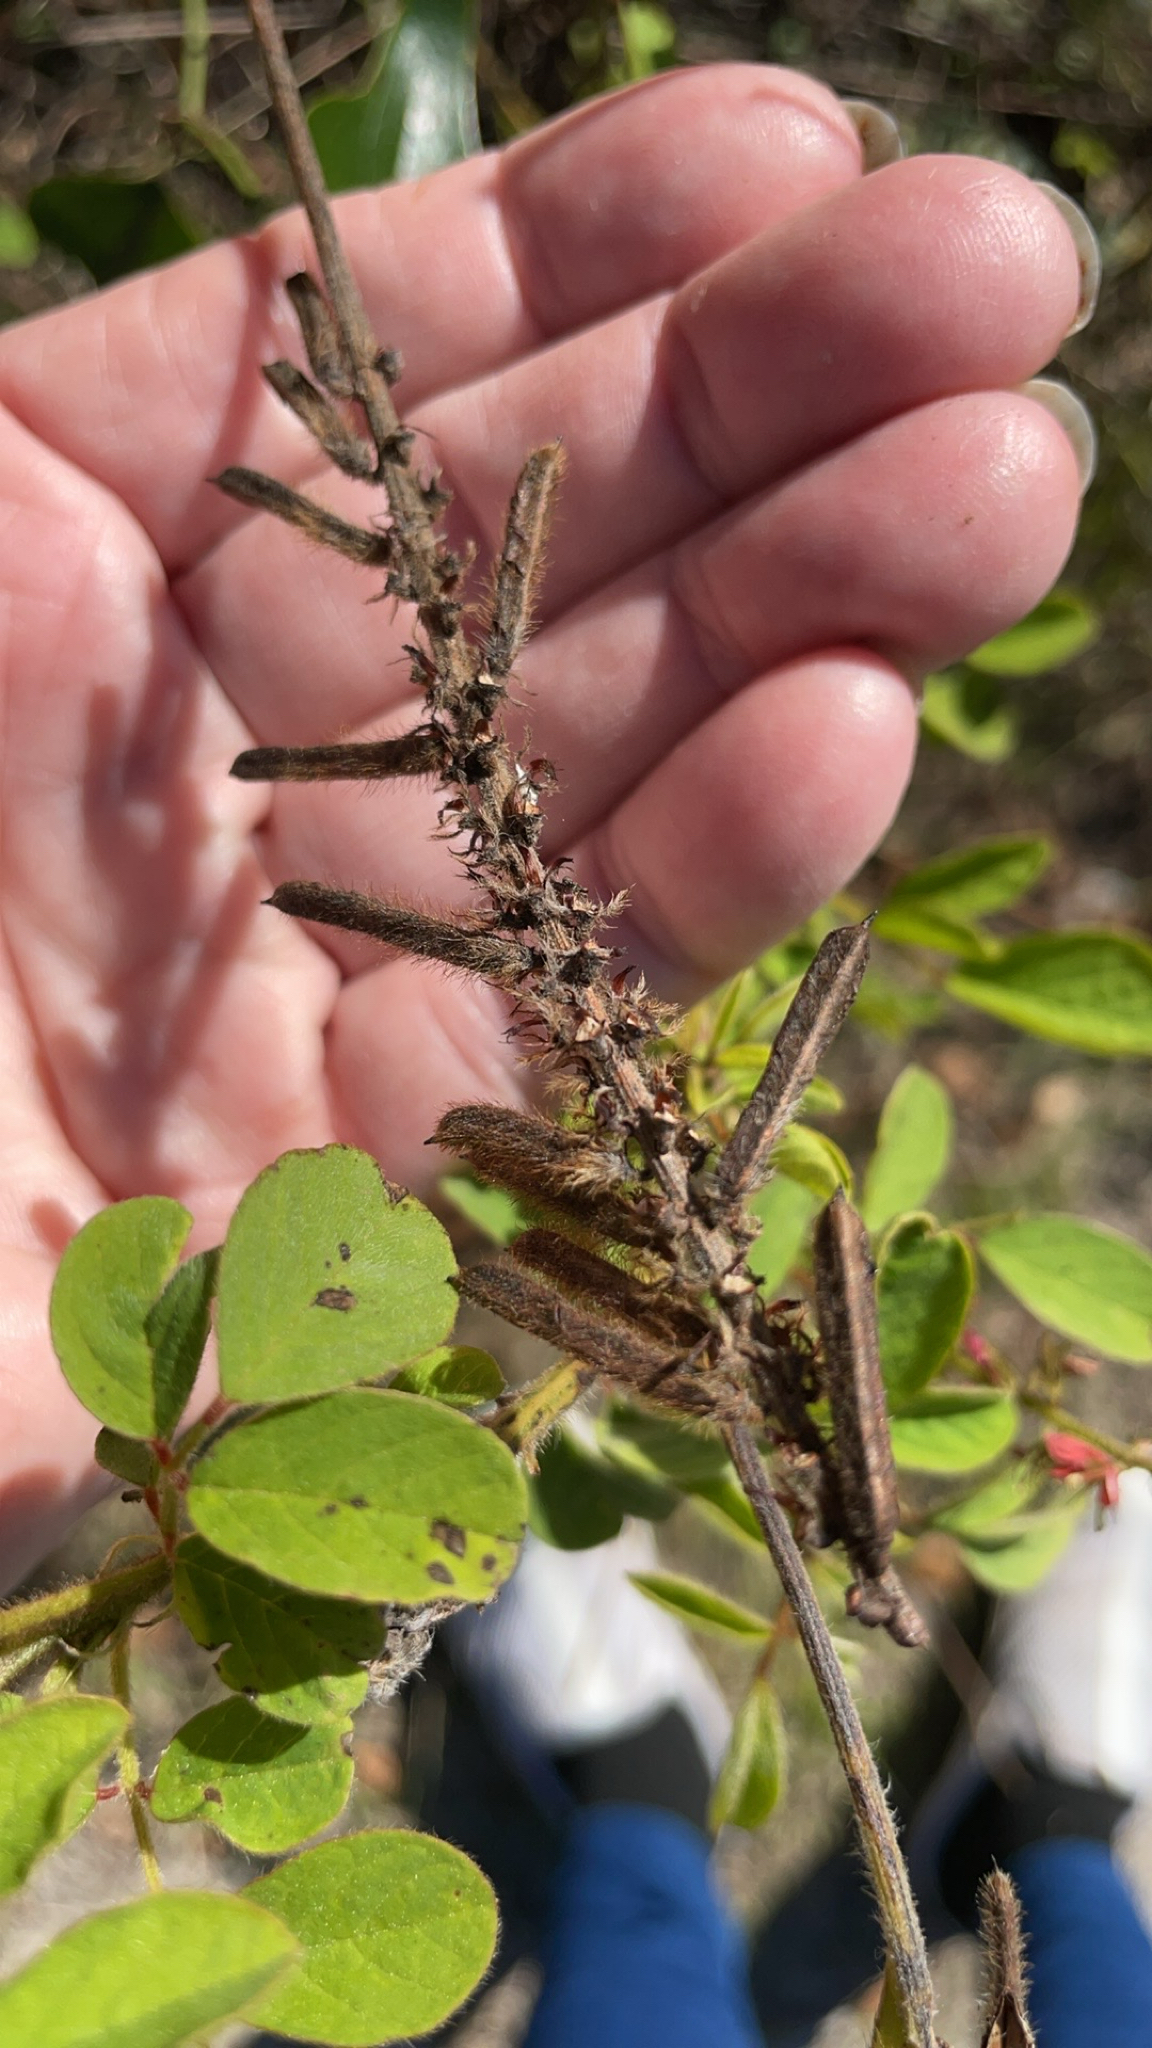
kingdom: Plantae
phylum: Tracheophyta
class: Magnoliopsida
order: Fabales
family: Fabaceae
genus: Indigofera
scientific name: Indigofera hirsuta
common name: Hairy indigo
